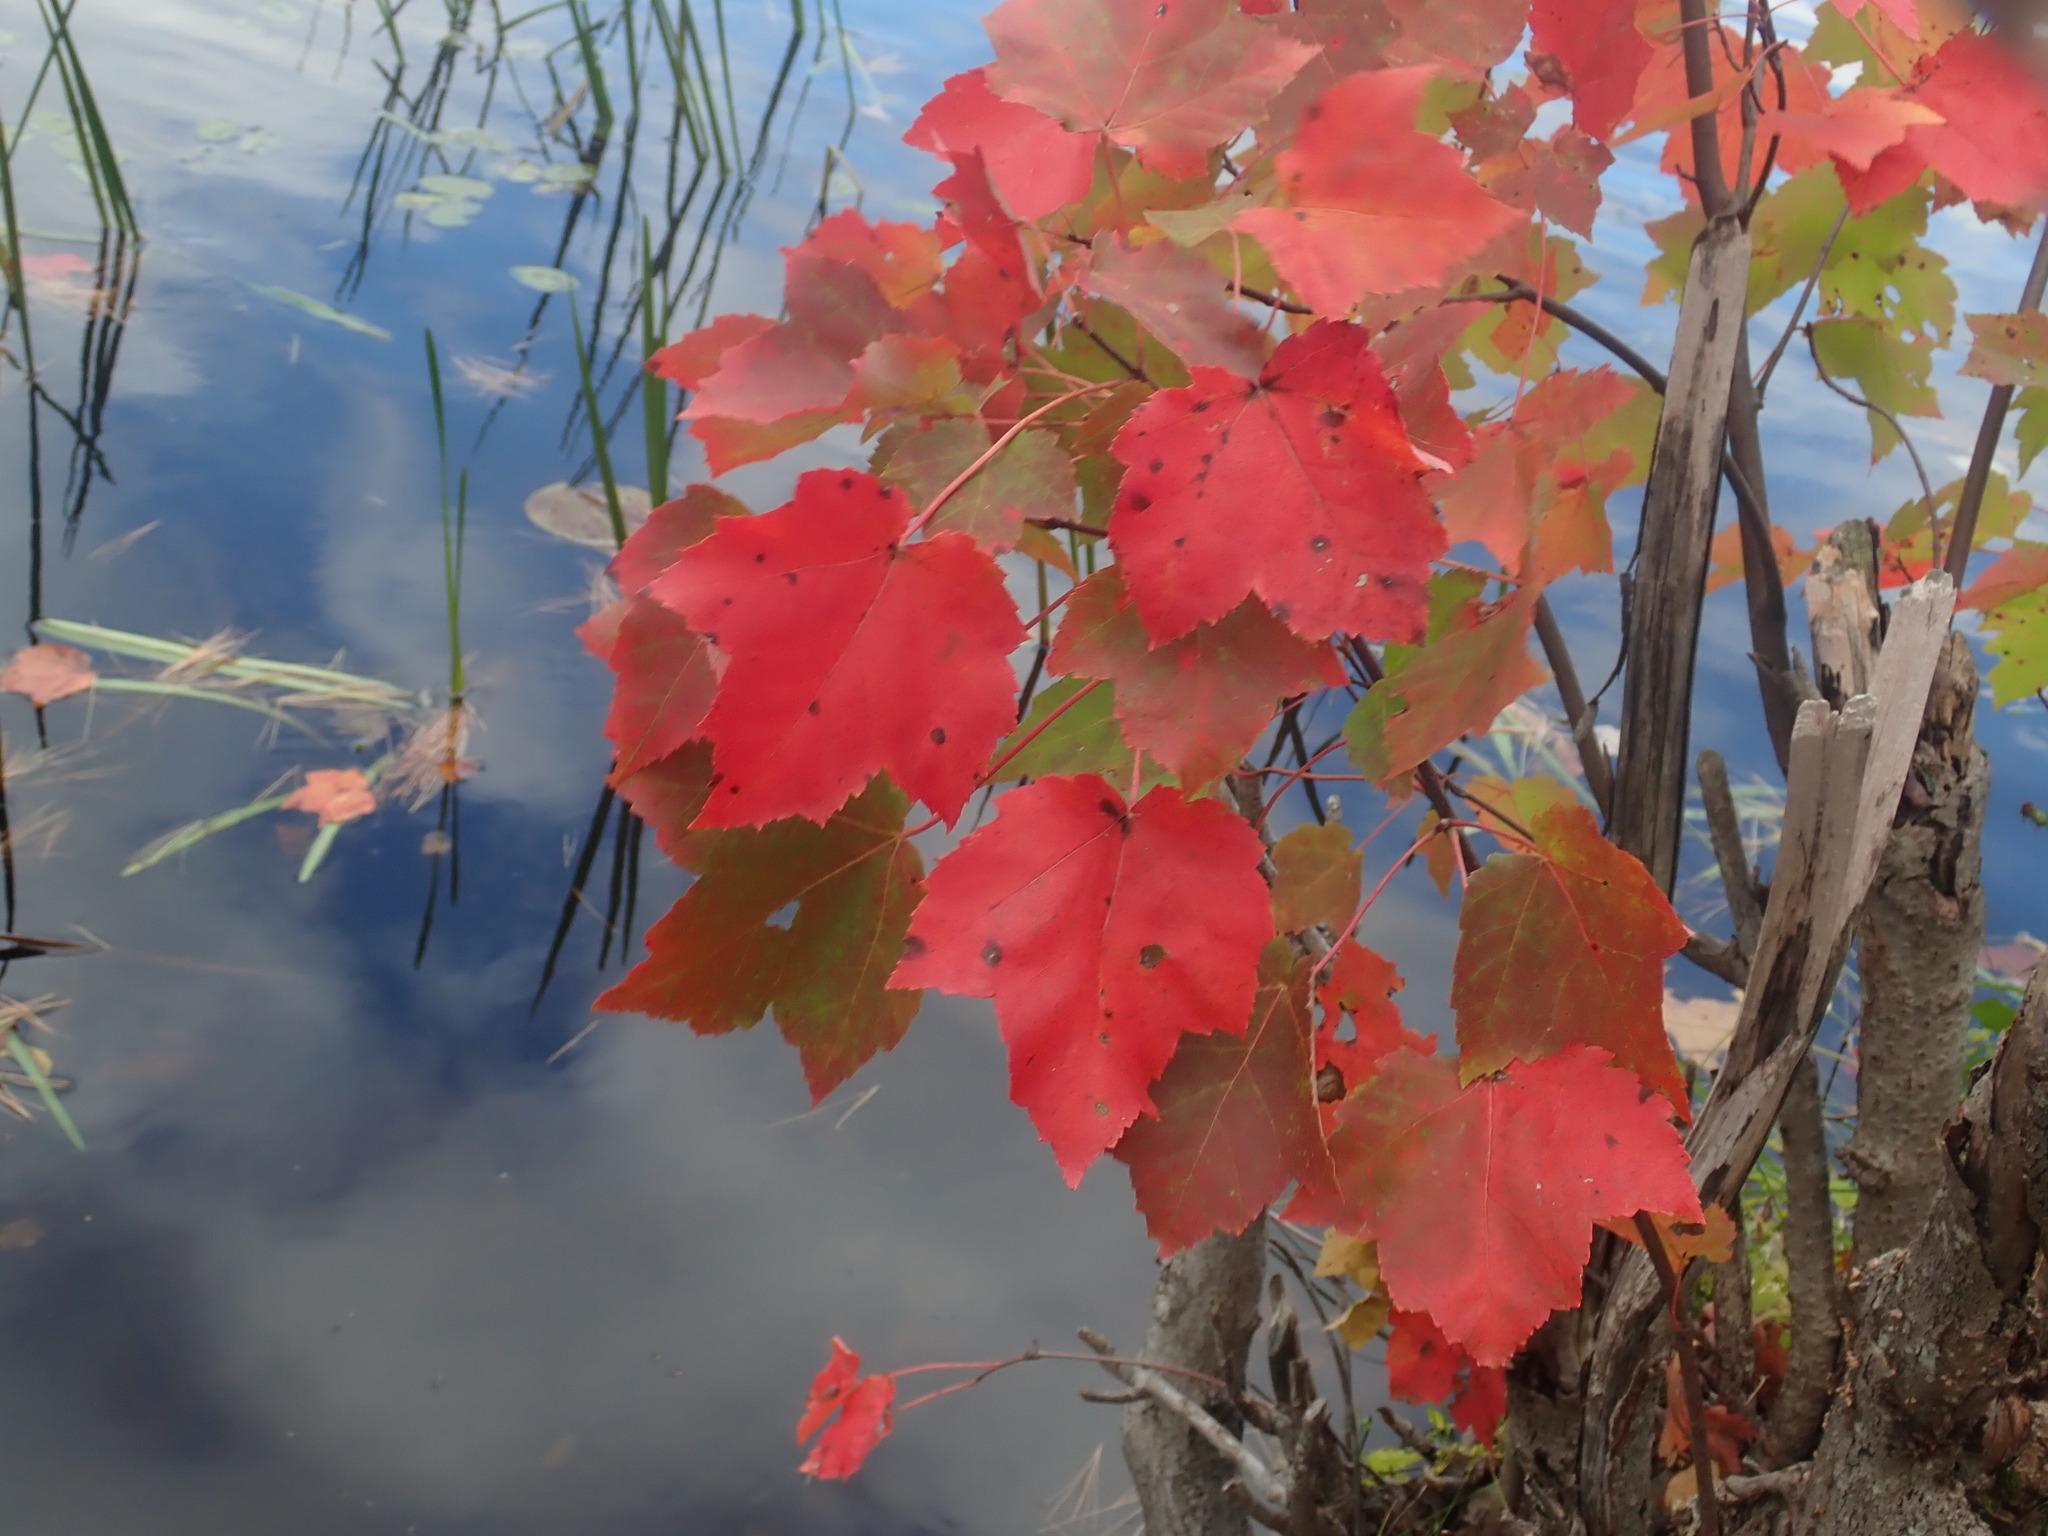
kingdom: Plantae
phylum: Tracheophyta
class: Magnoliopsida
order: Sapindales
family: Sapindaceae
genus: Acer
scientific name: Acer rubrum
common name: Red maple
